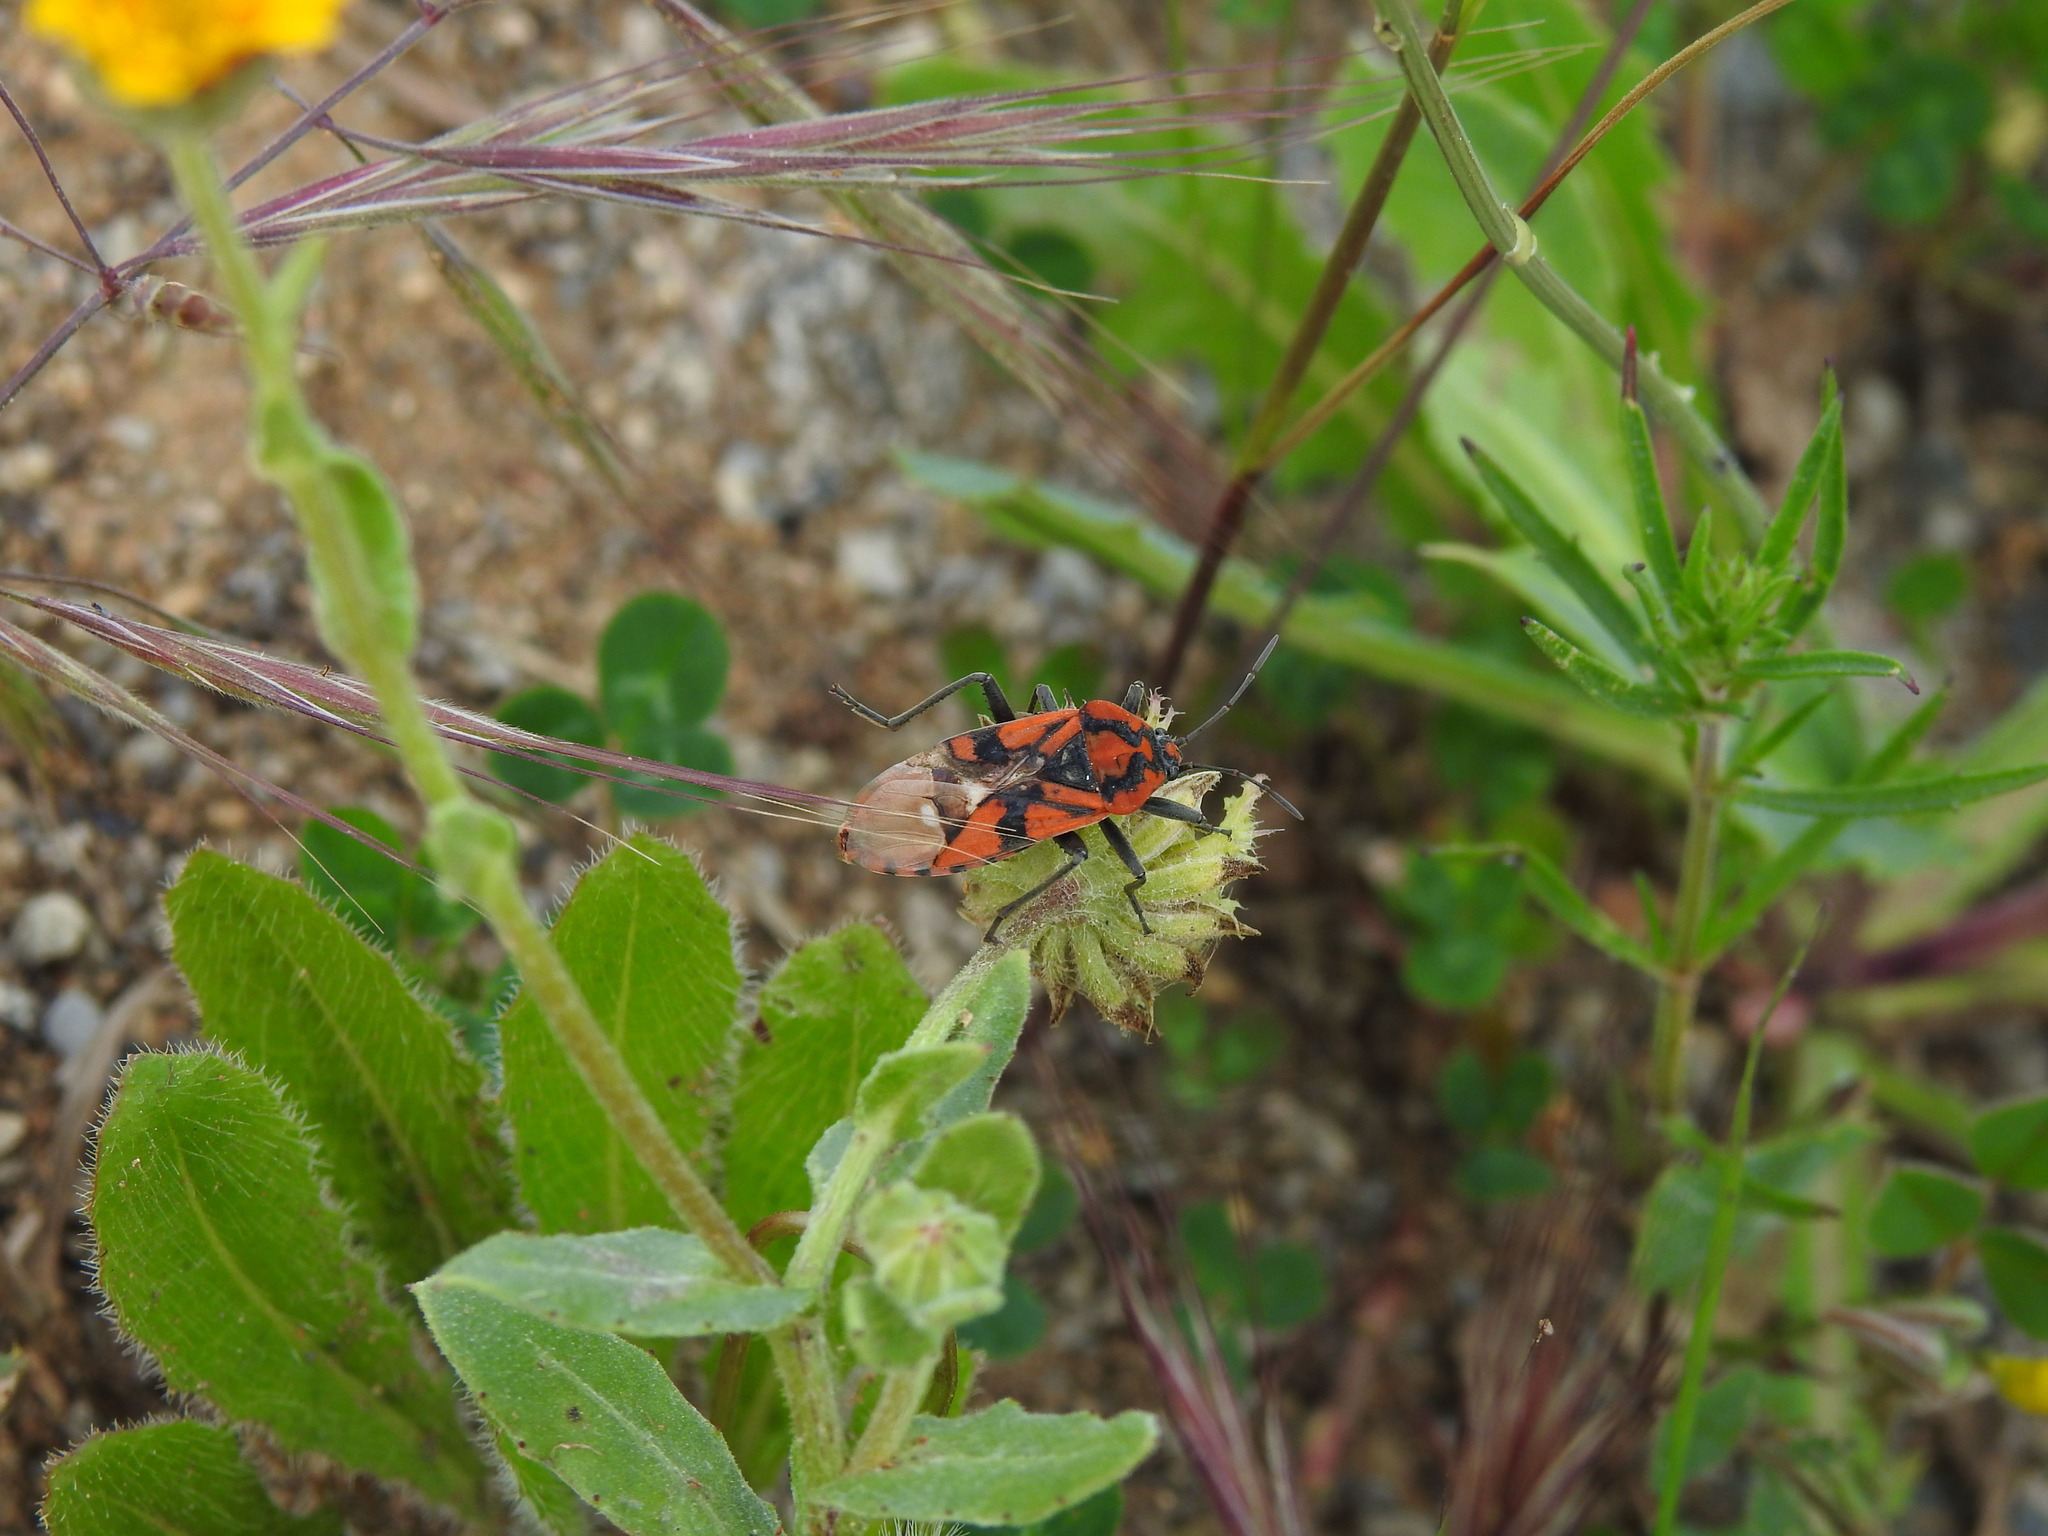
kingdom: Animalia
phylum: Arthropoda
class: Insecta
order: Hemiptera
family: Lygaeidae
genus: Spilostethus
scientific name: Spilostethus pandurus
